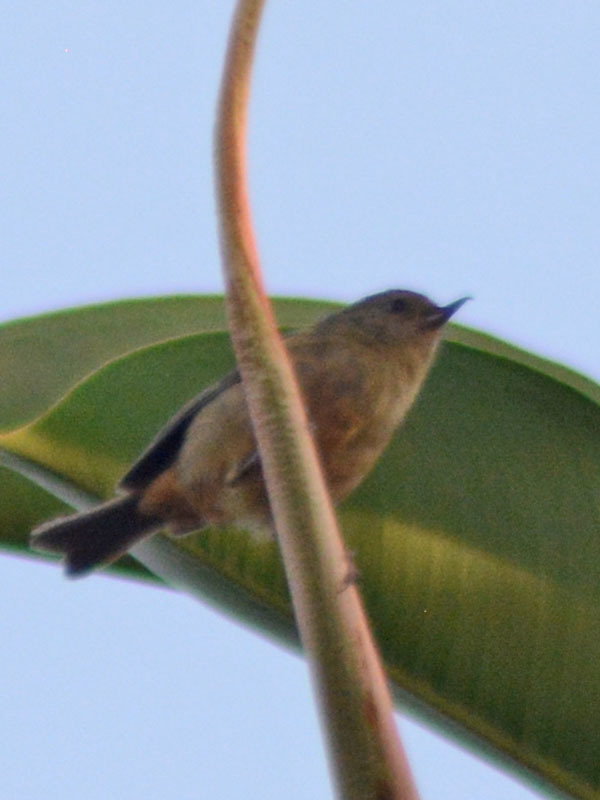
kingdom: Animalia
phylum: Chordata
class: Aves
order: Passeriformes
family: Thraupidae
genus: Diglossa
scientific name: Diglossa baritula
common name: Cinnamon-bellied flowerpiercer
